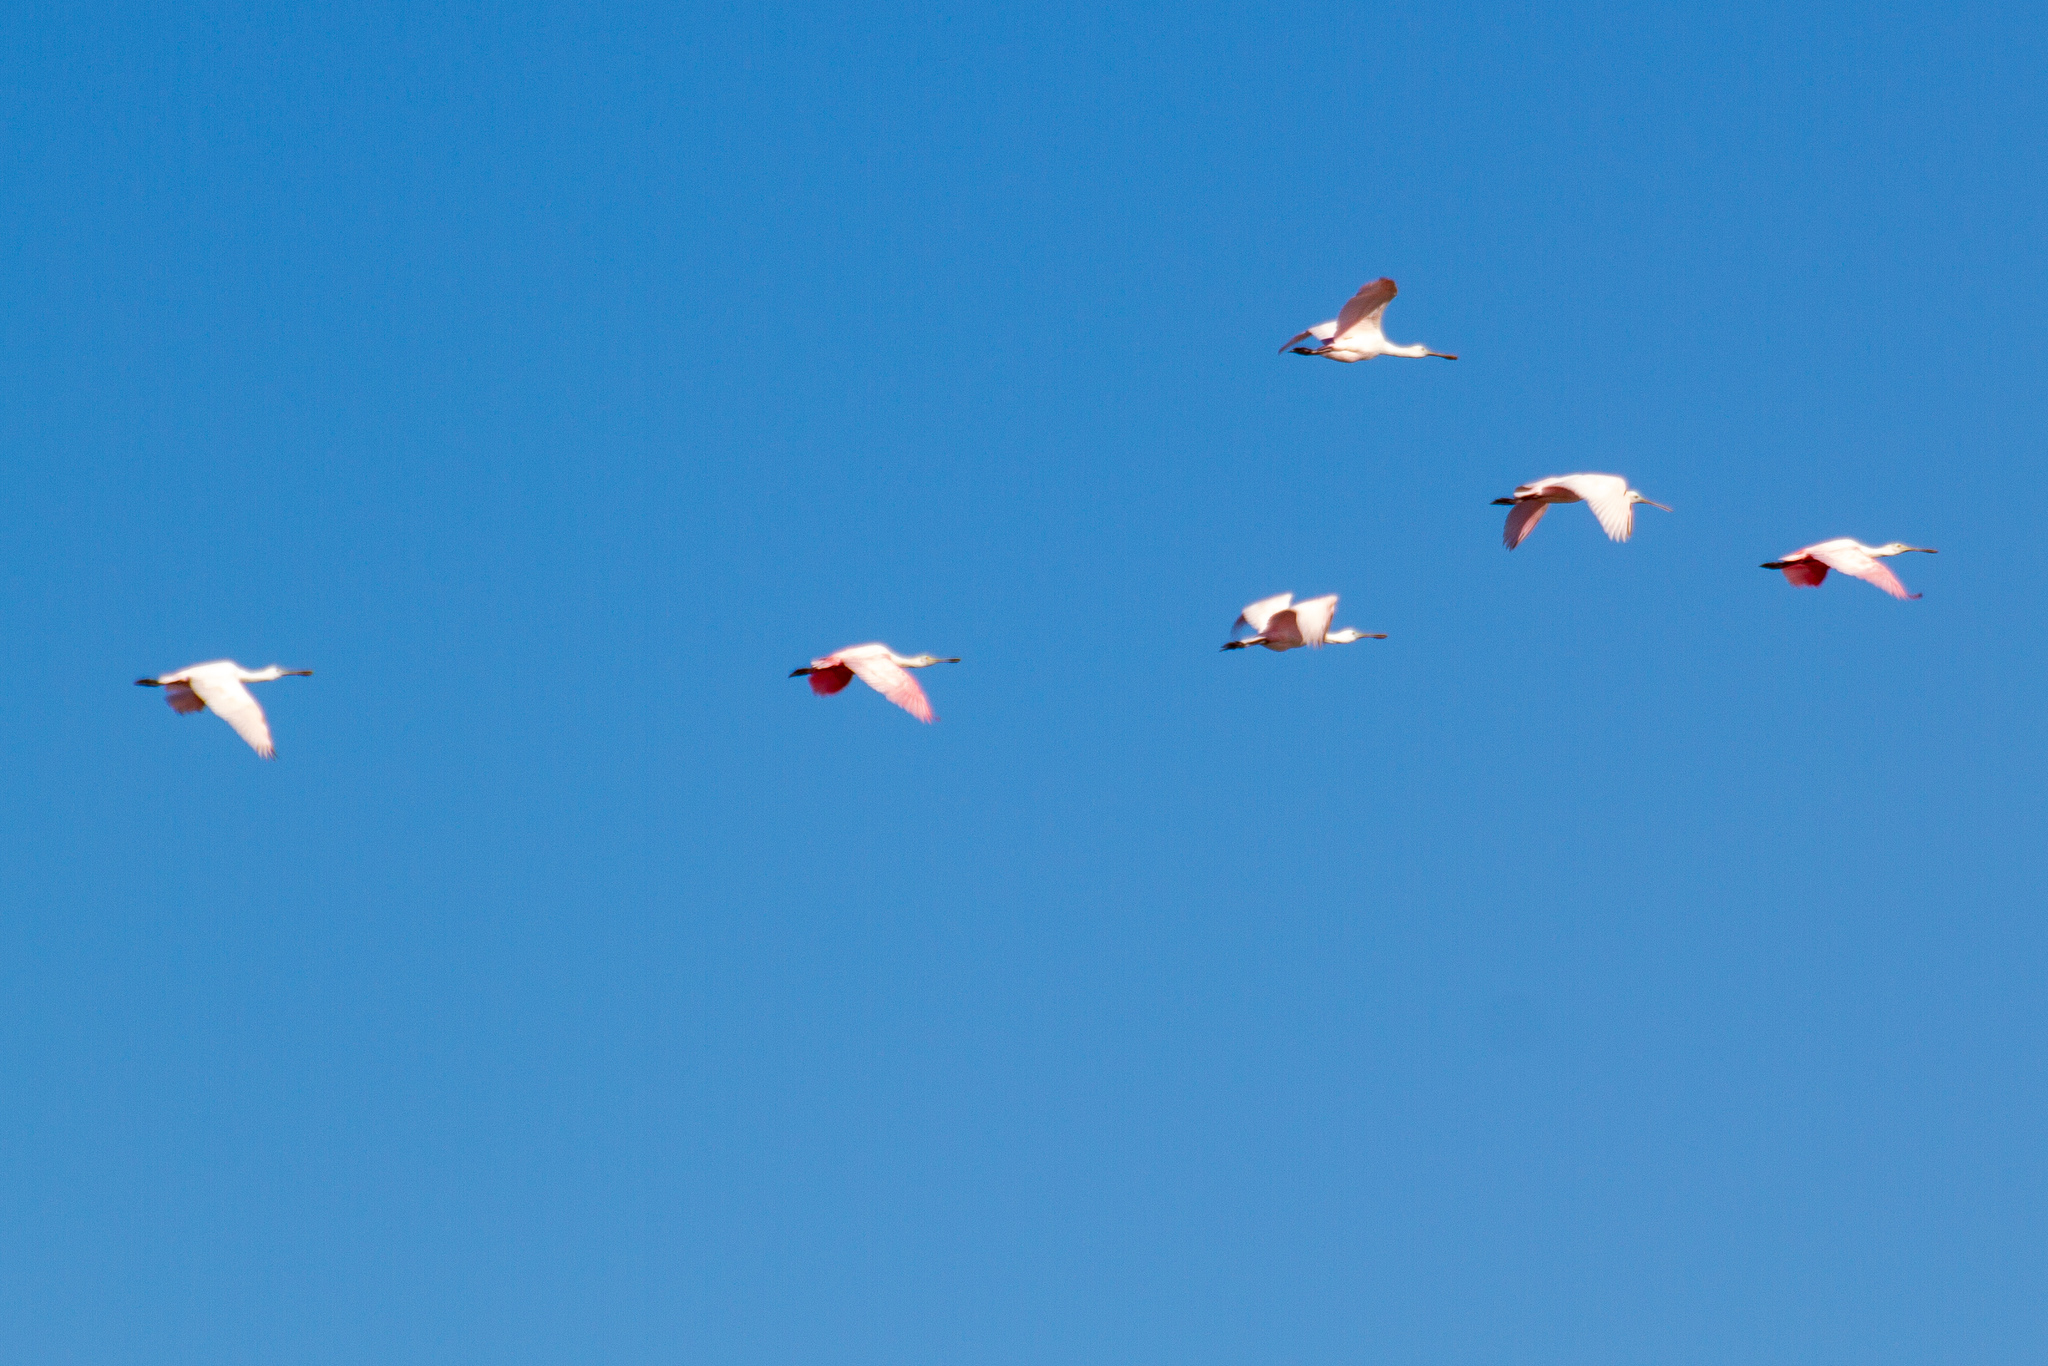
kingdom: Animalia
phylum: Chordata
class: Aves
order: Pelecaniformes
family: Threskiornithidae
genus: Platalea
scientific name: Platalea ajaja
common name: Roseate spoonbill
